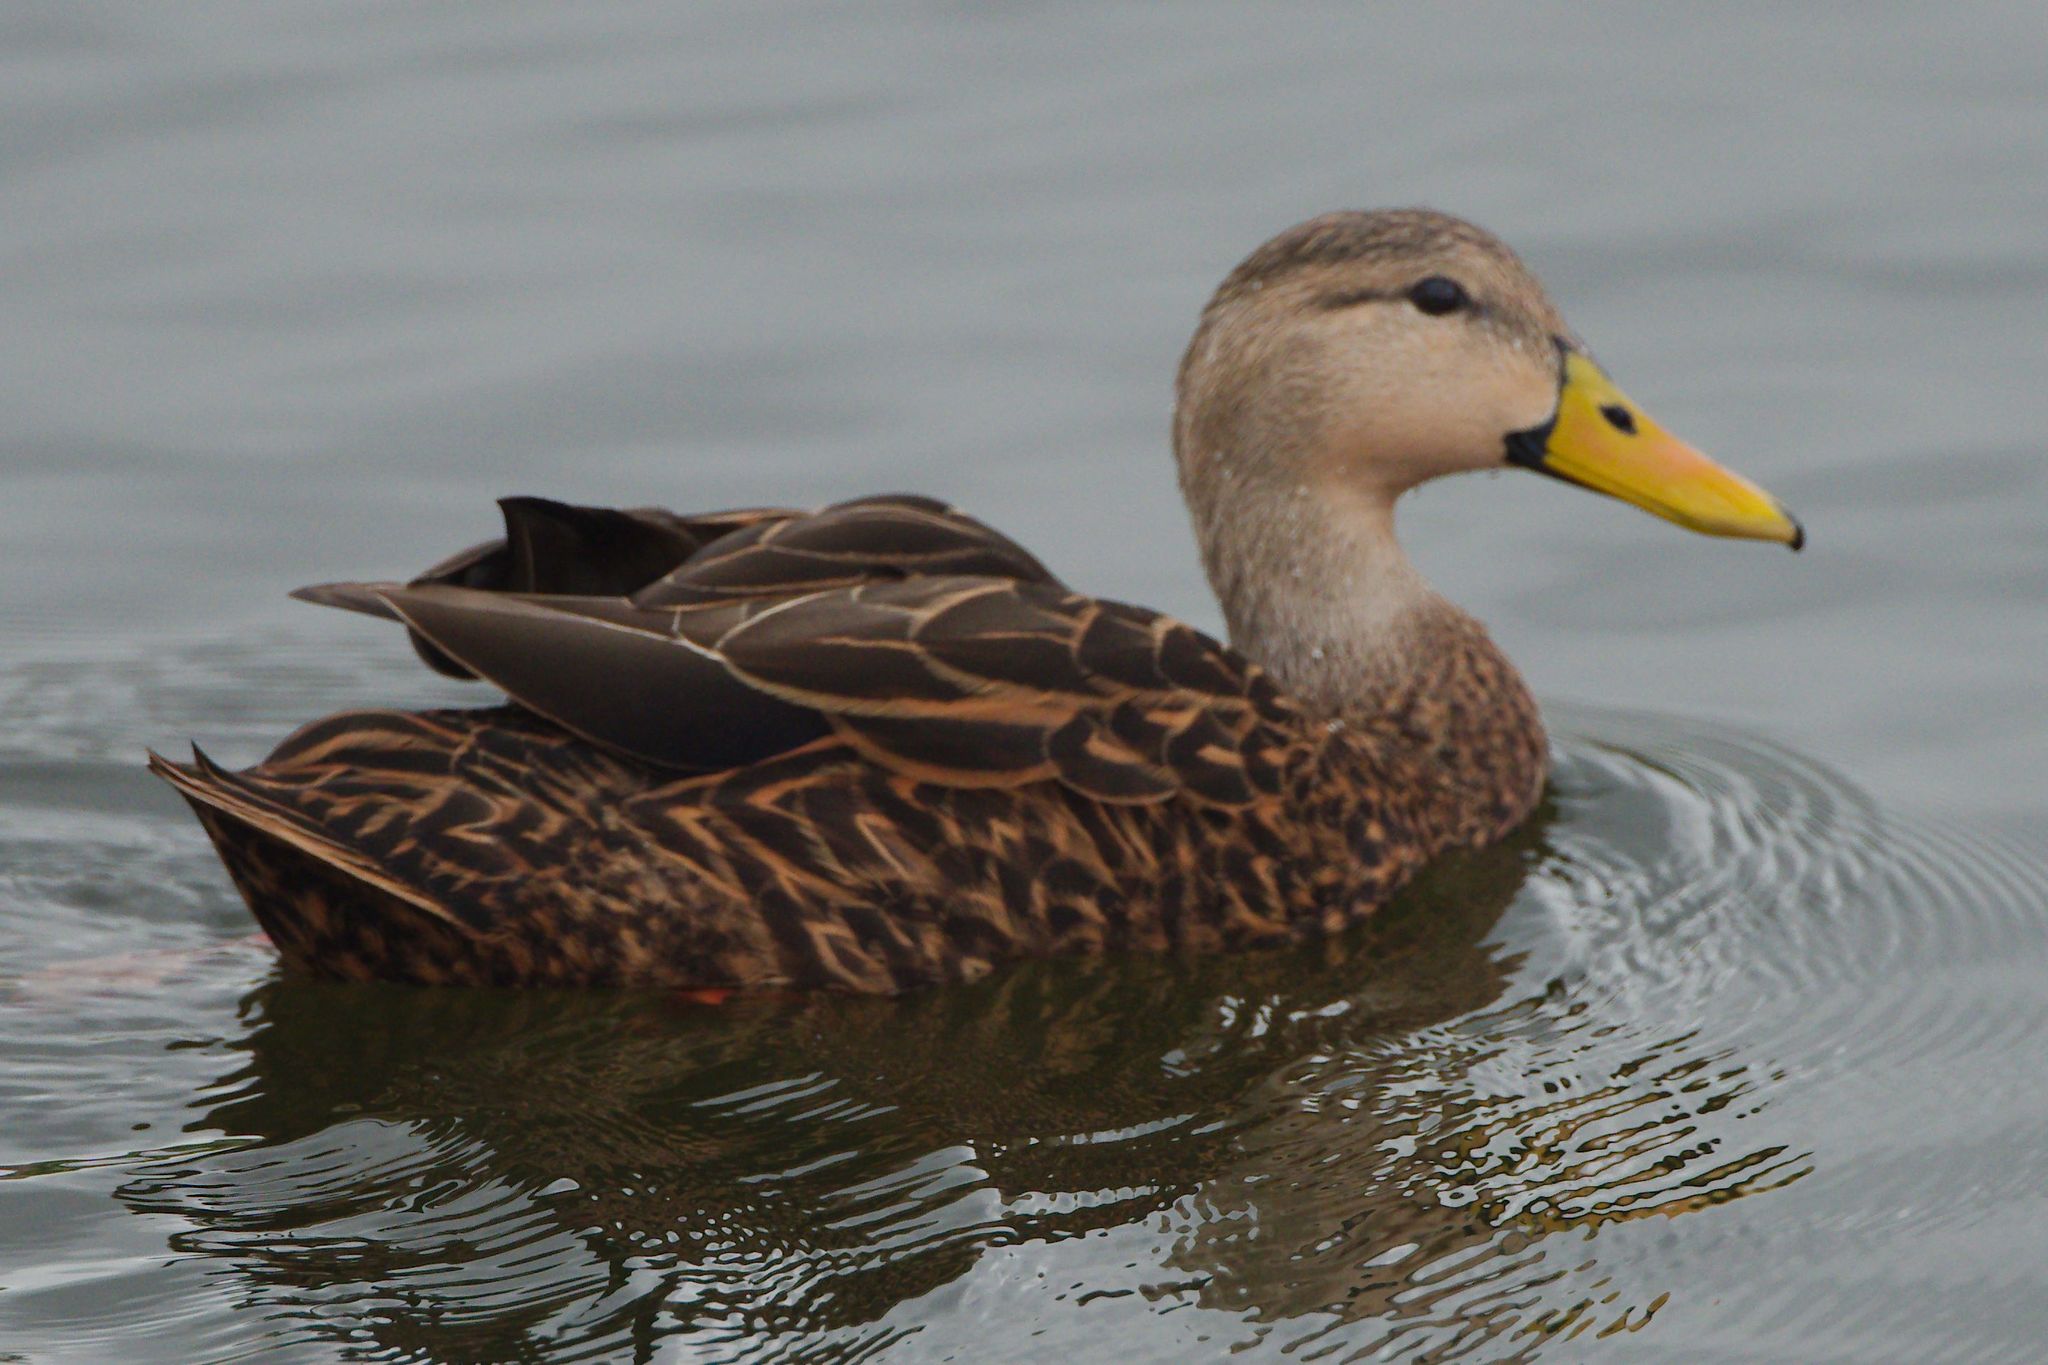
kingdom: Animalia
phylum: Chordata
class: Aves
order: Anseriformes
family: Anatidae
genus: Anas
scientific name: Anas fulvigula
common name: Mottled duck
